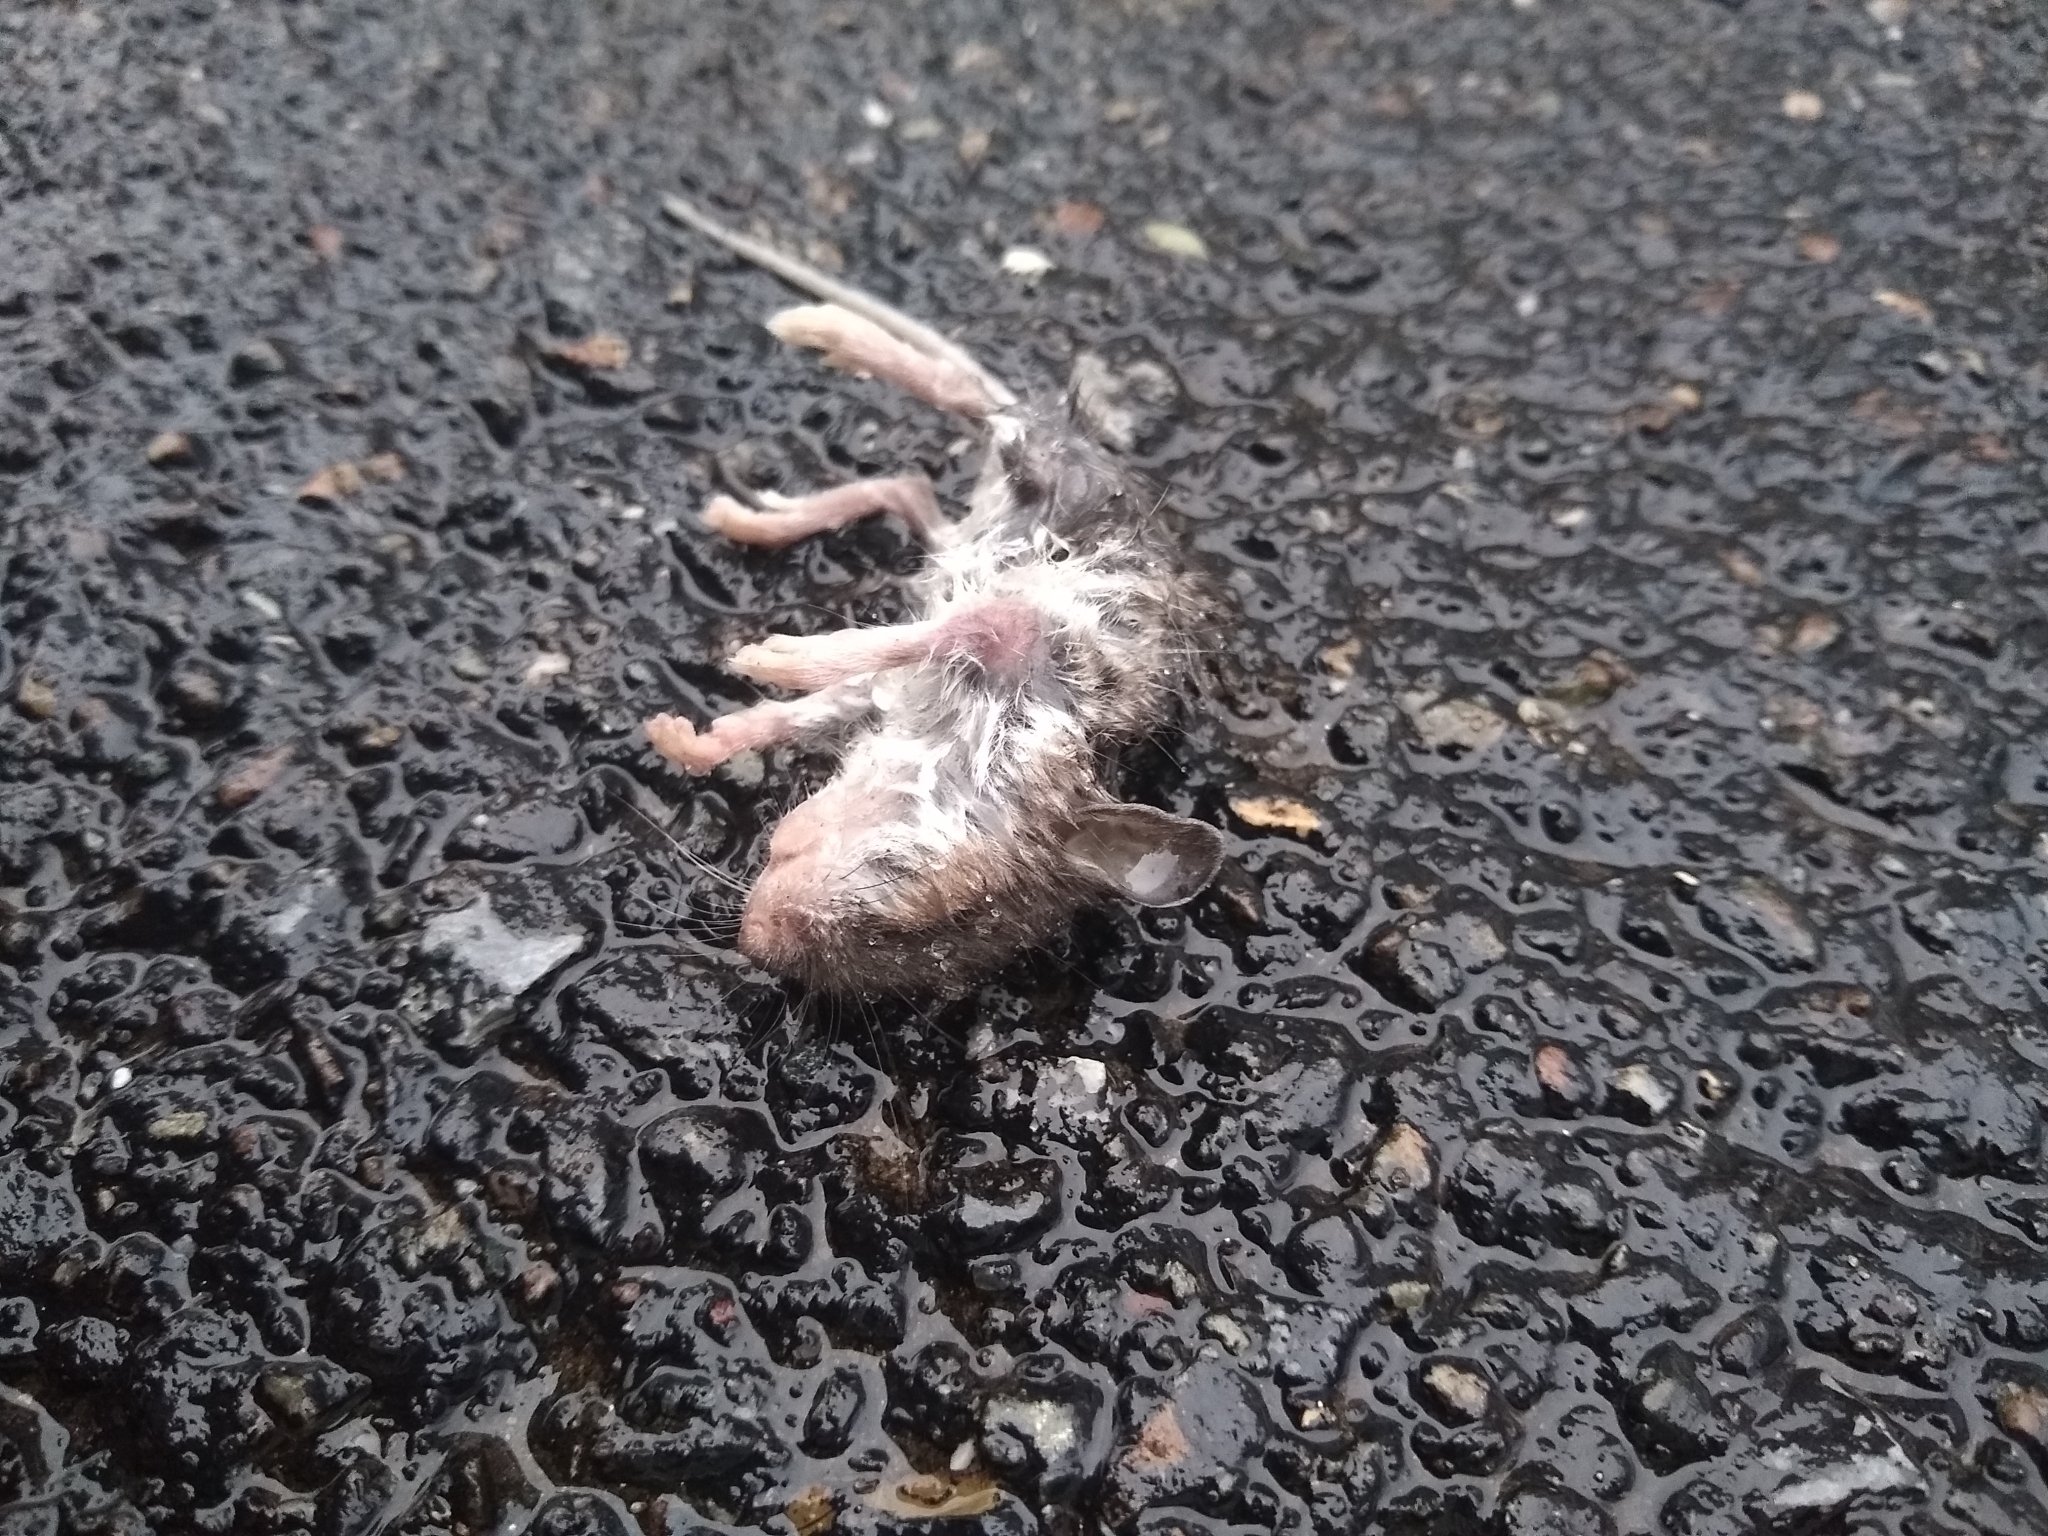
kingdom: Animalia
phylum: Chordata
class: Mammalia
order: Rodentia
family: Cricetidae
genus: Peromyscus
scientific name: Peromyscus
